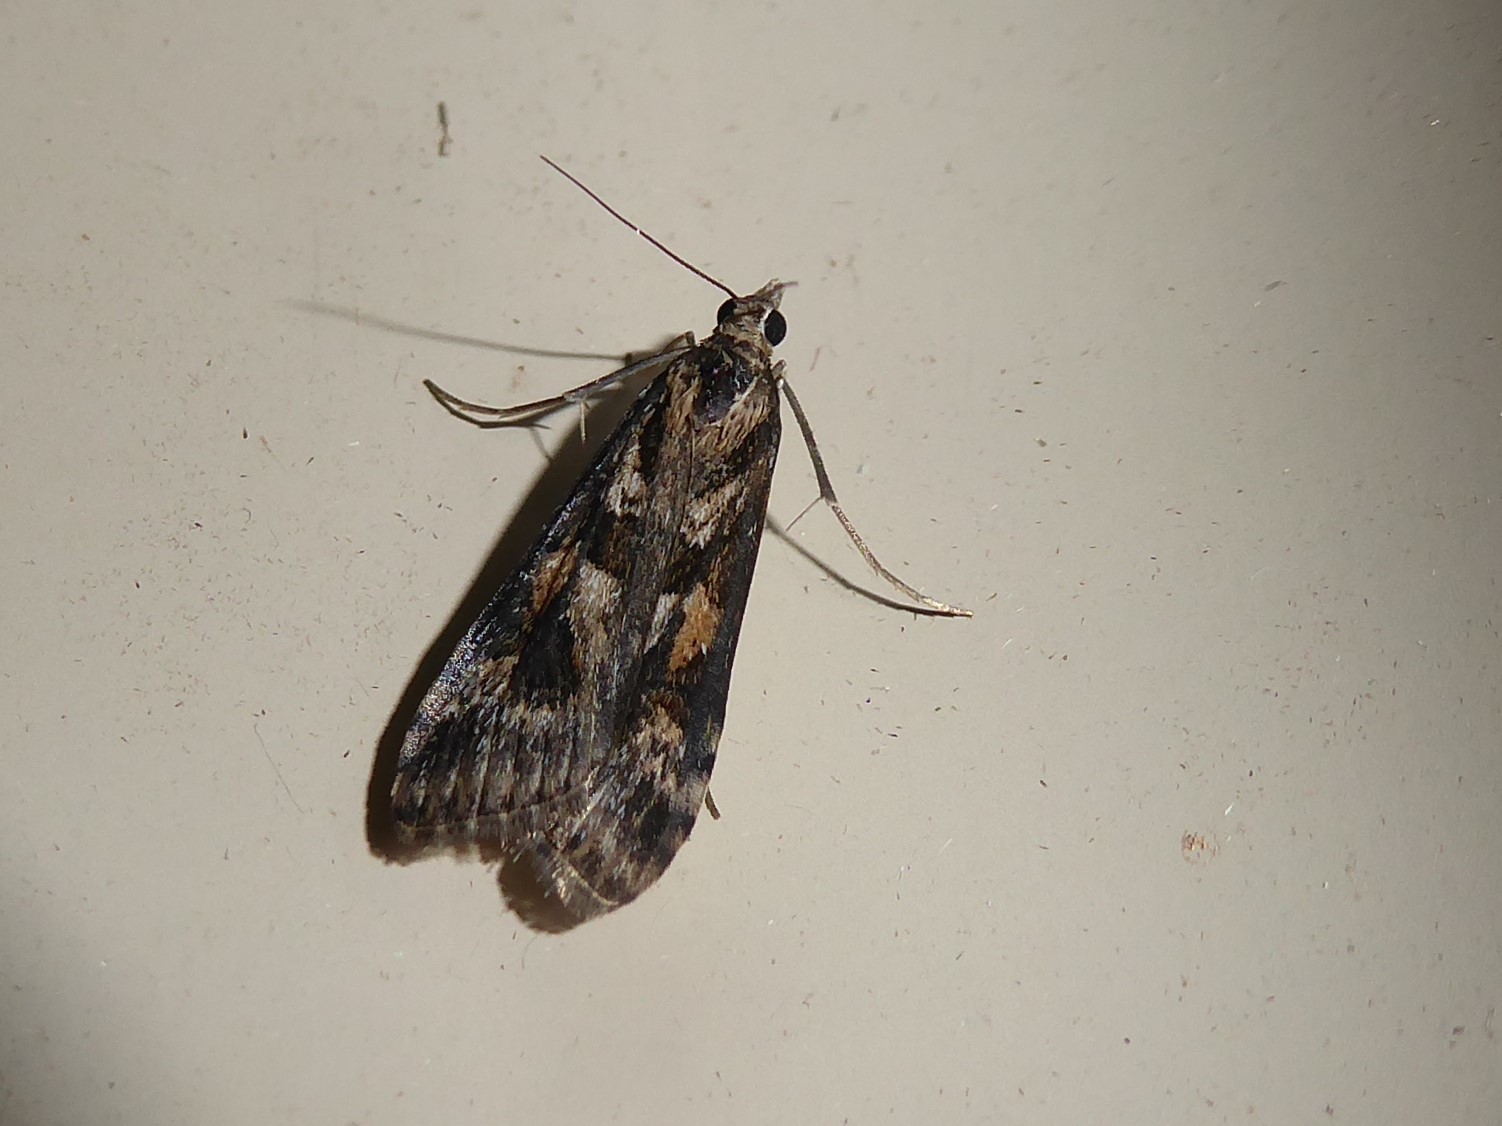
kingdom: Animalia
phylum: Arthropoda
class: Insecta
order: Lepidoptera
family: Crambidae
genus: Nomophila
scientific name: Nomophila corticalis
